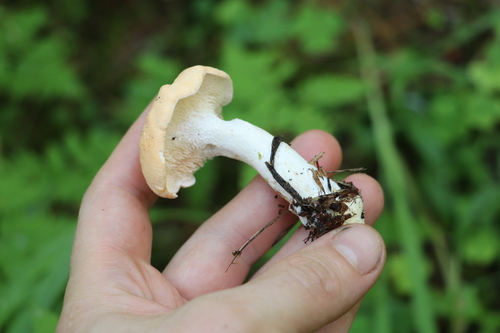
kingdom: Fungi
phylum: Basidiomycota
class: Agaricomycetes
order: Cantharellales
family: Hydnaceae
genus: Hydnum
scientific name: Hydnum repandum
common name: Wood hedgehog
